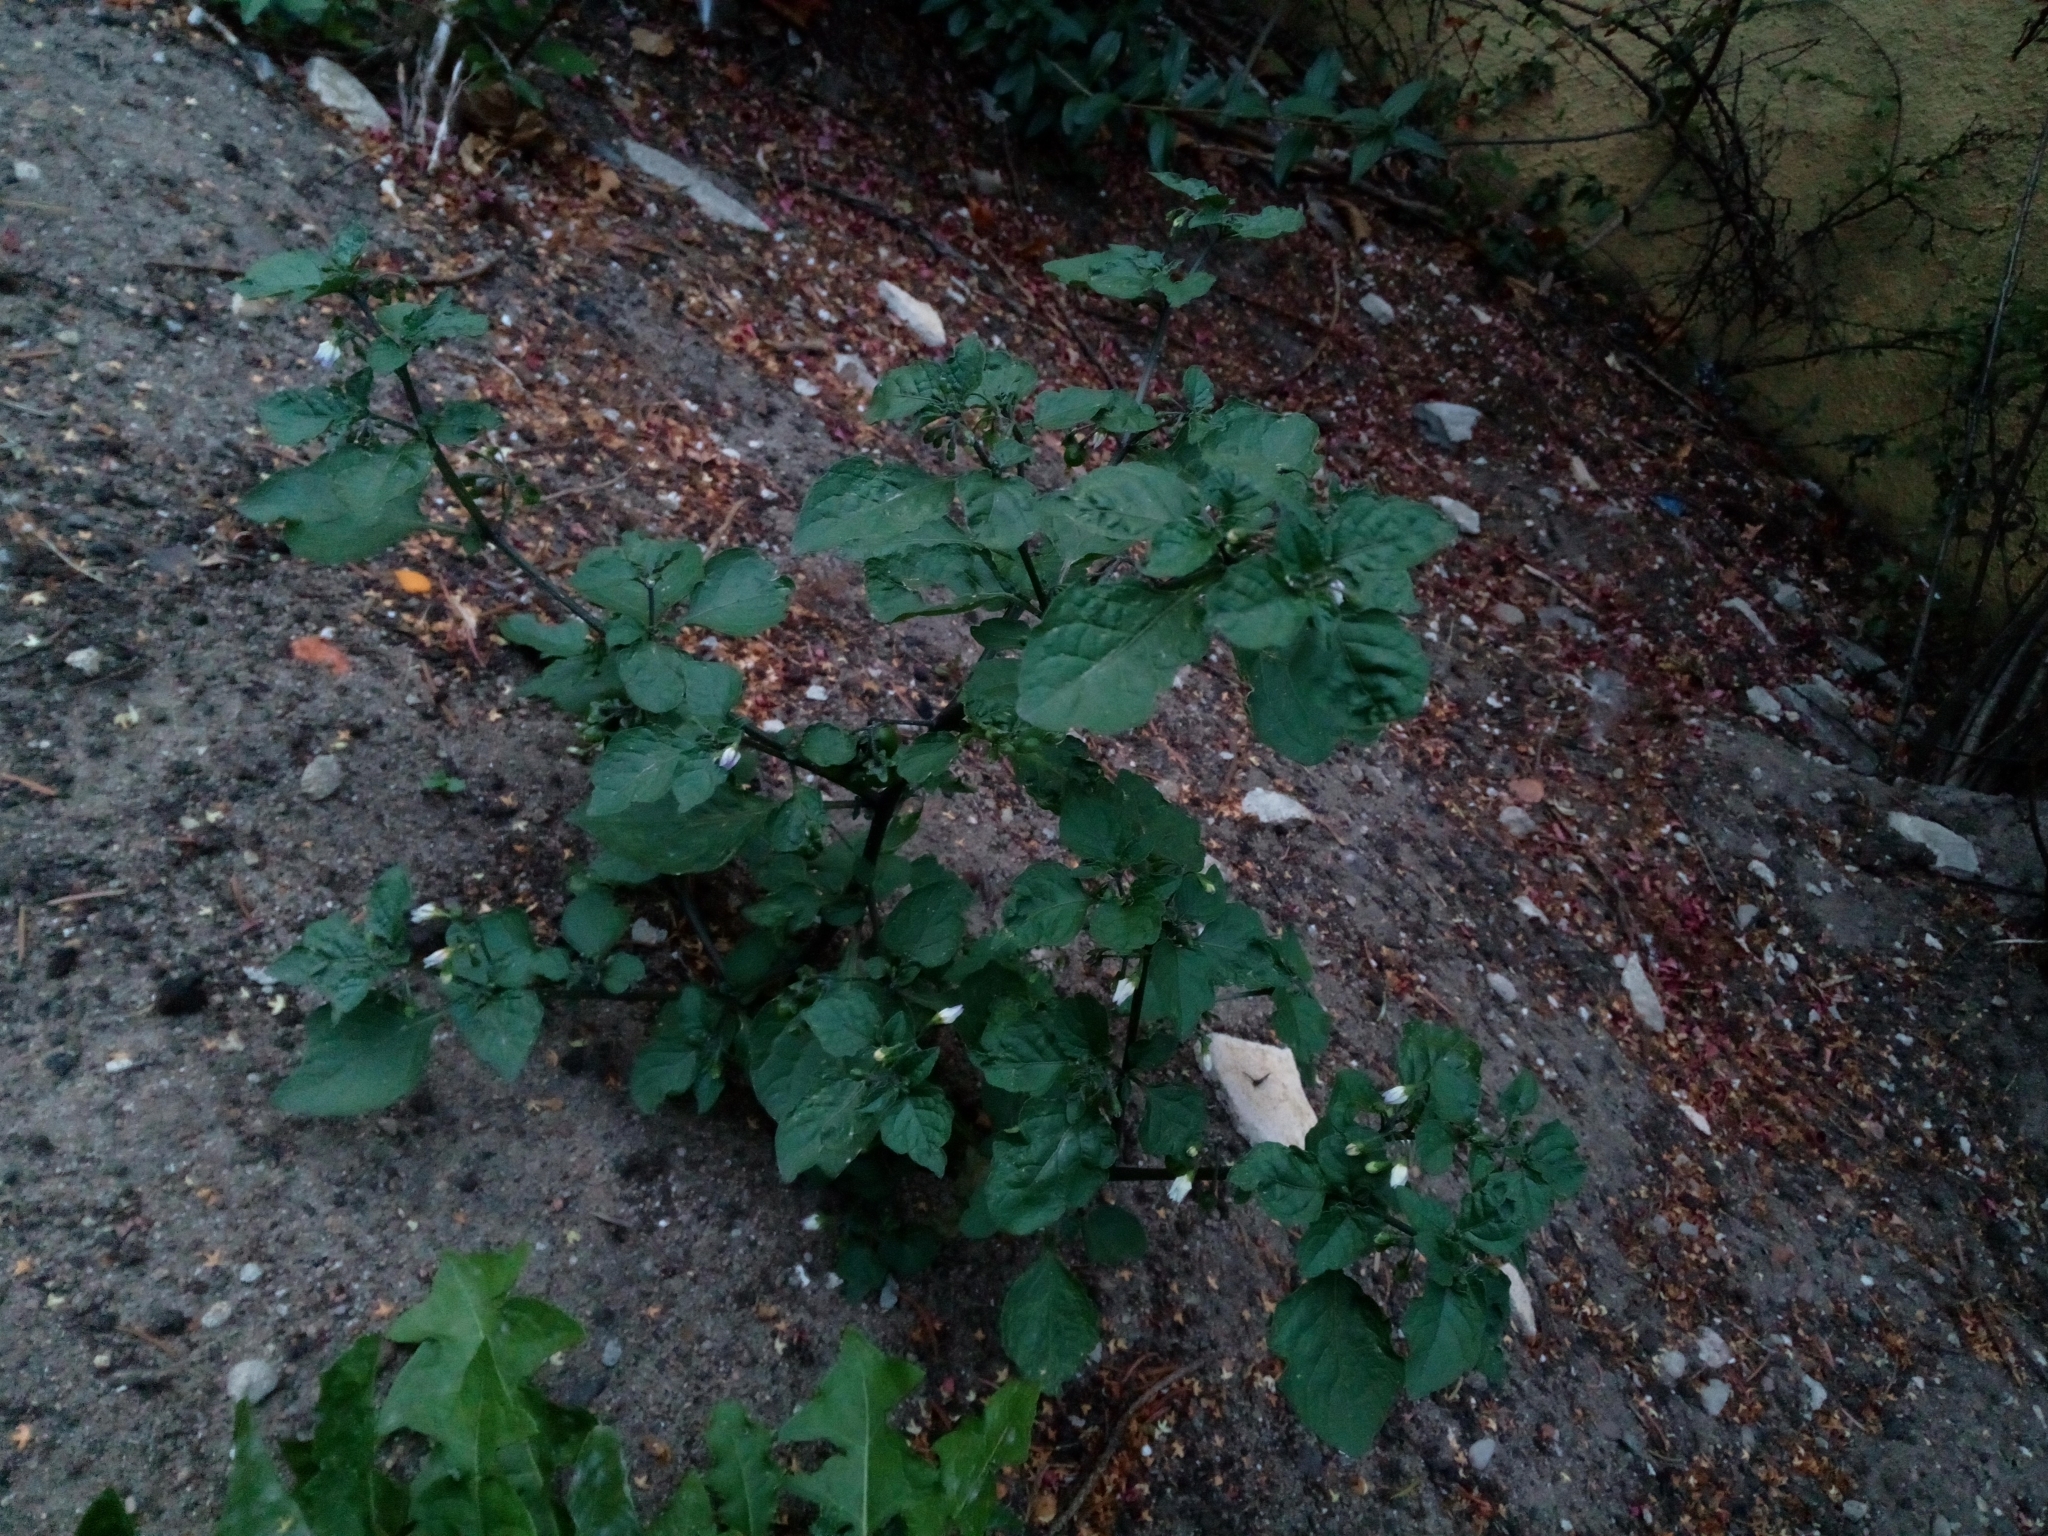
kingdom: Plantae
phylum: Tracheophyta
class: Magnoliopsida
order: Solanales
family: Solanaceae
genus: Solanum
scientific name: Solanum nigrum
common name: Black nightshade
